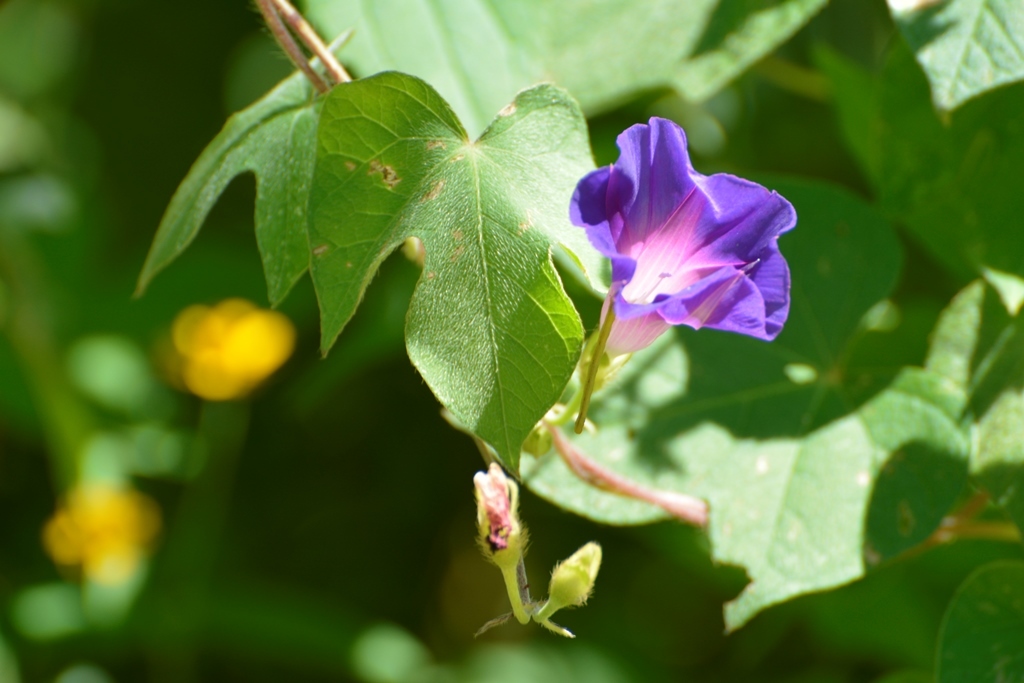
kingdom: Plantae
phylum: Tracheophyta
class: Magnoliopsida
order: Solanales
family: Convolvulaceae
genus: Ipomoea
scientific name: Ipomoea purpurea
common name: Common morning-glory
